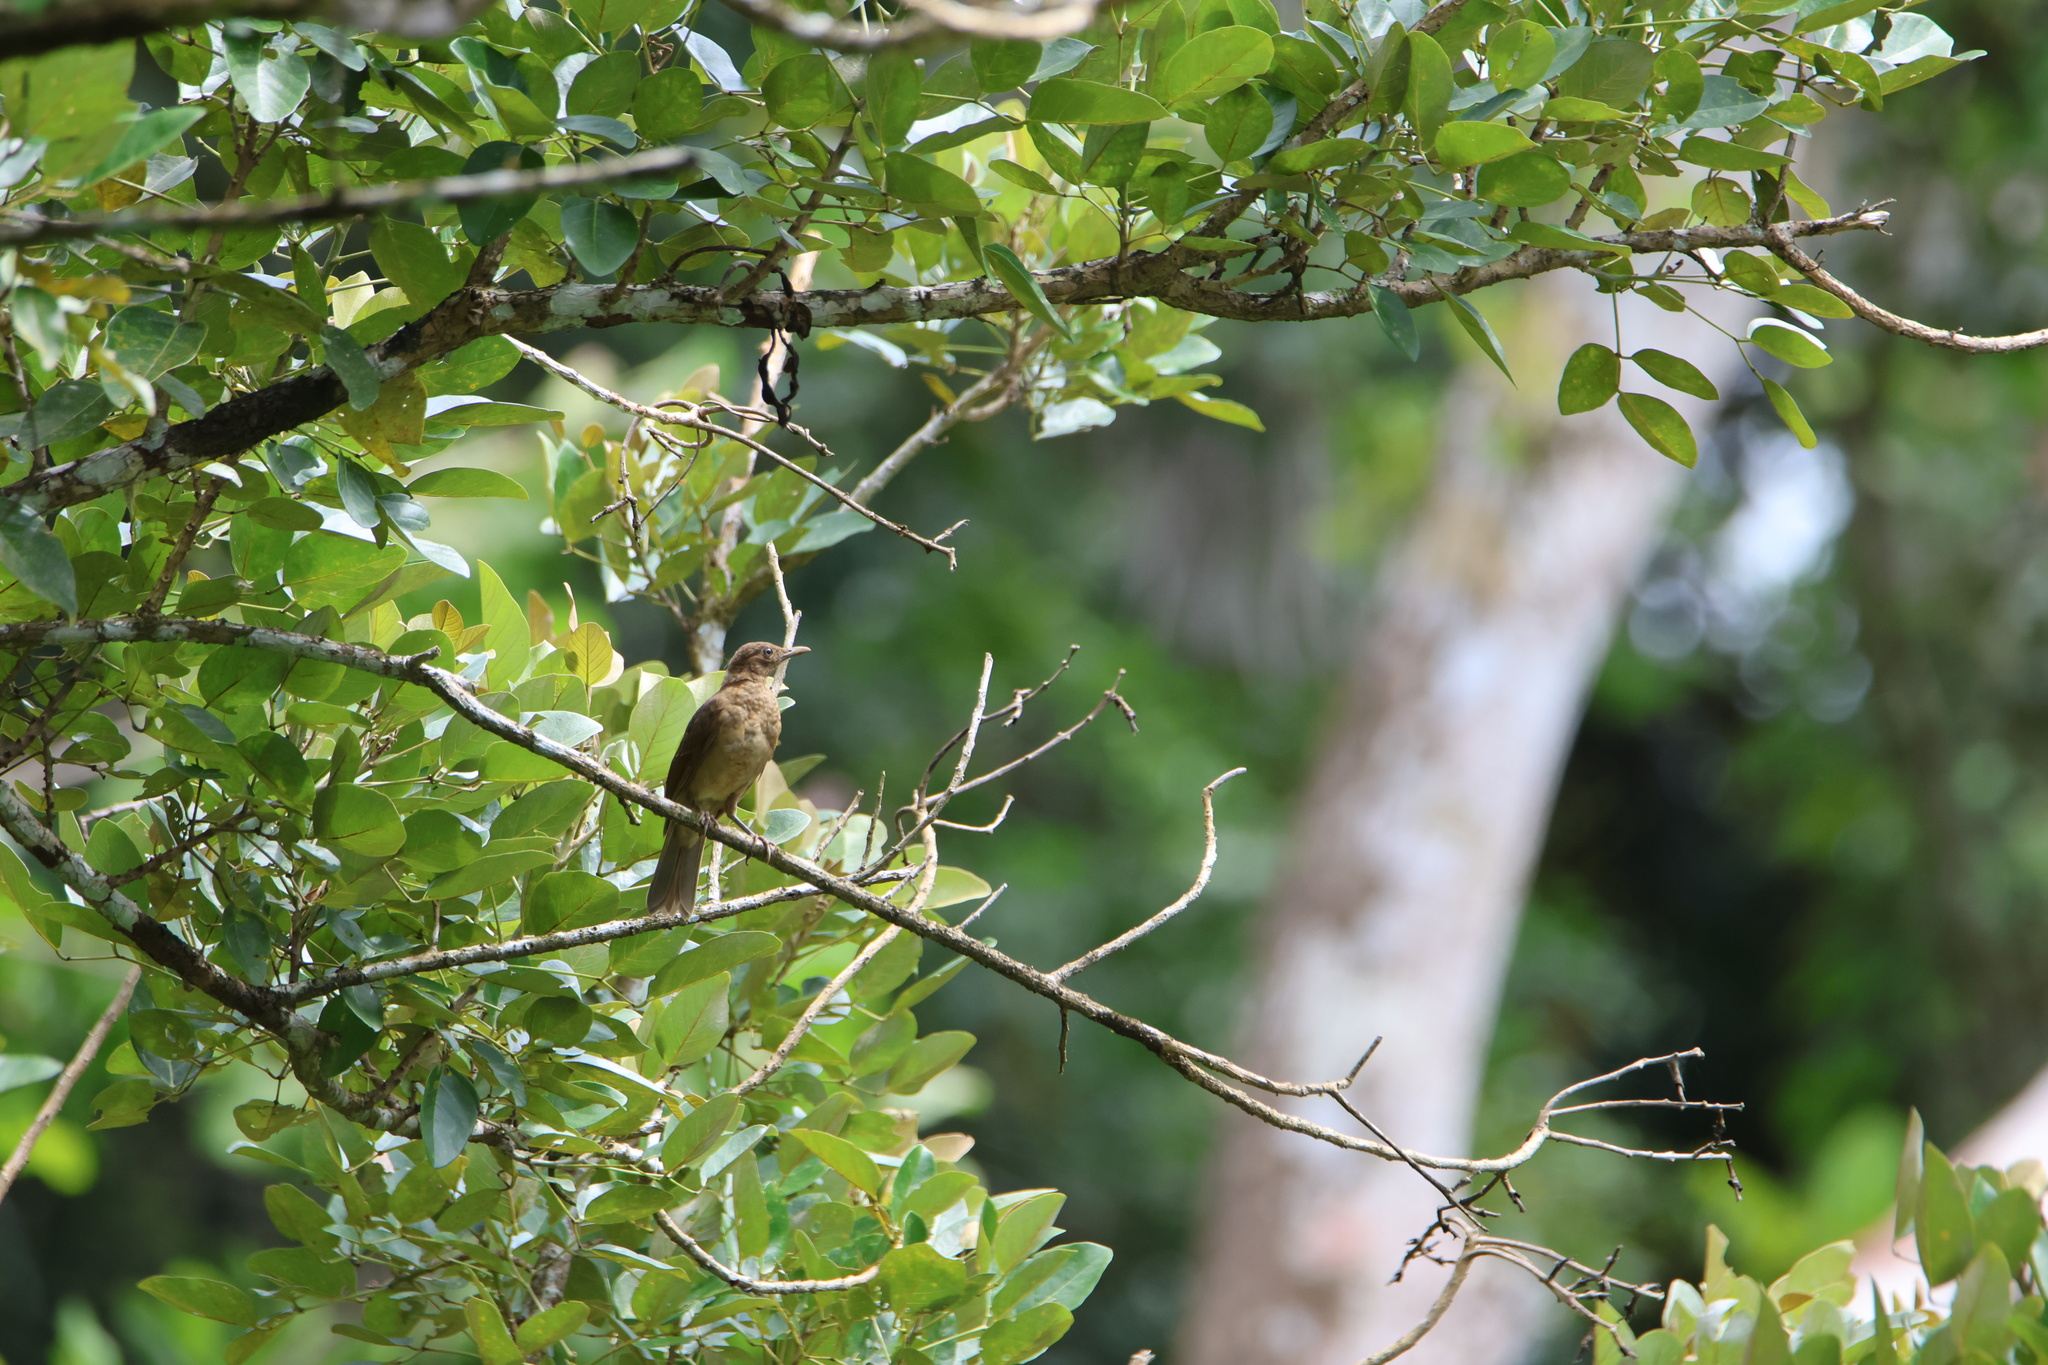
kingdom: Animalia
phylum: Chordata
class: Aves
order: Passeriformes
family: Turdidae
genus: Turdus
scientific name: Turdus grayi
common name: Clay-colored thrush
